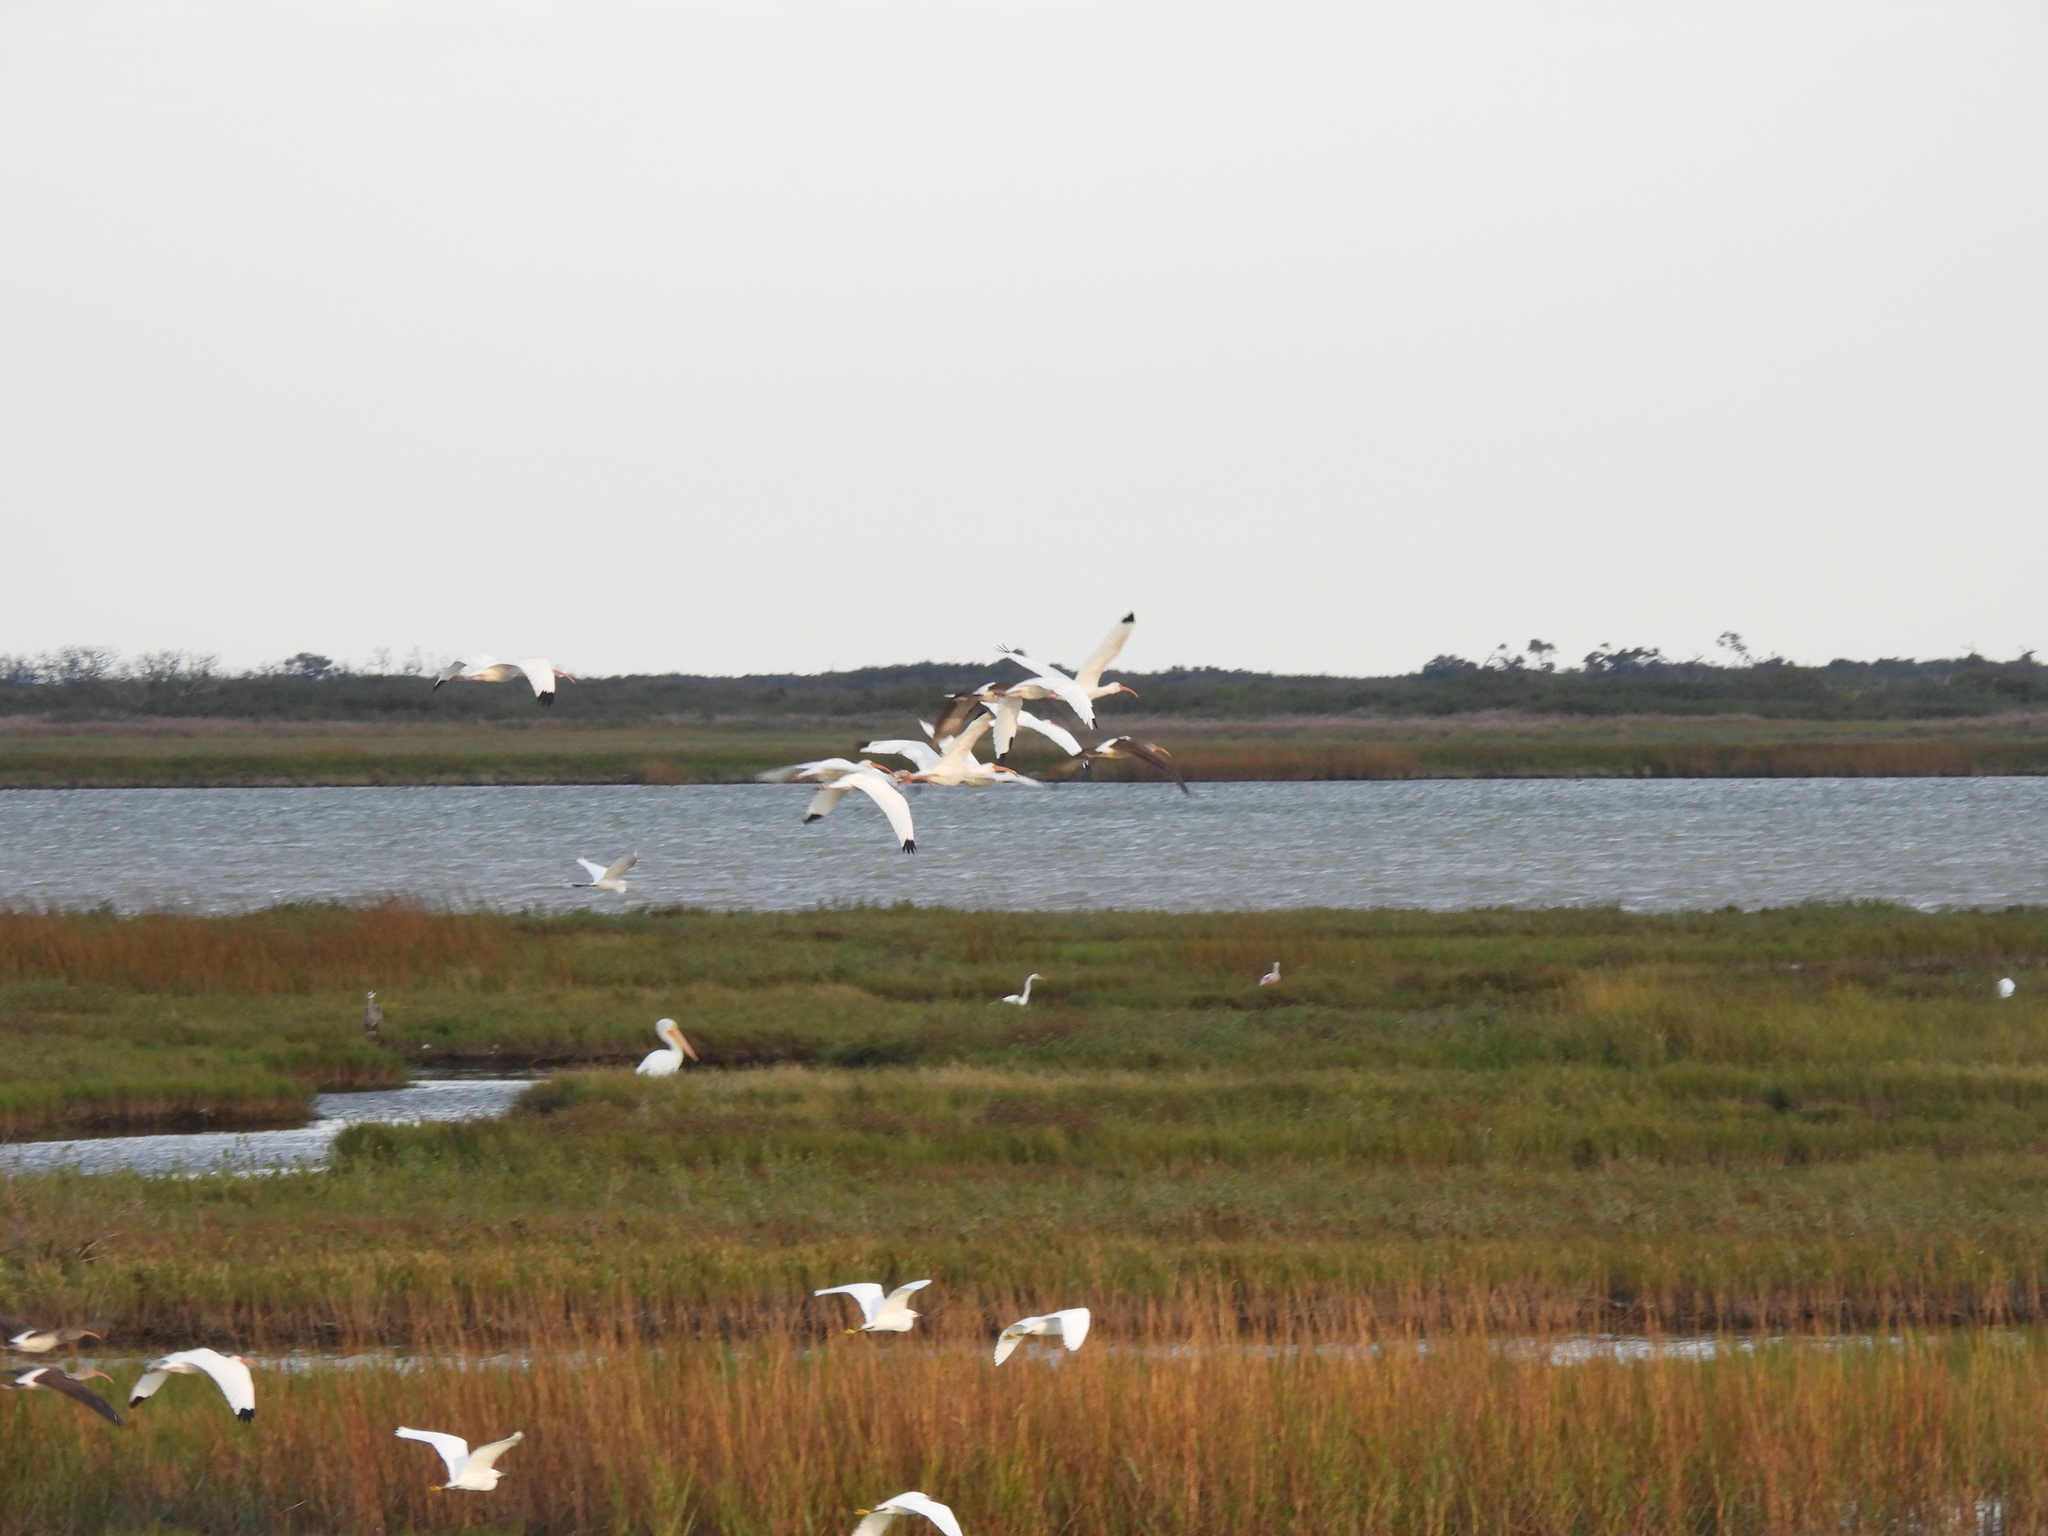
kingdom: Animalia
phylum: Chordata
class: Aves
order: Pelecaniformes
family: Threskiornithidae
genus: Eudocimus
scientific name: Eudocimus albus
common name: White ibis
